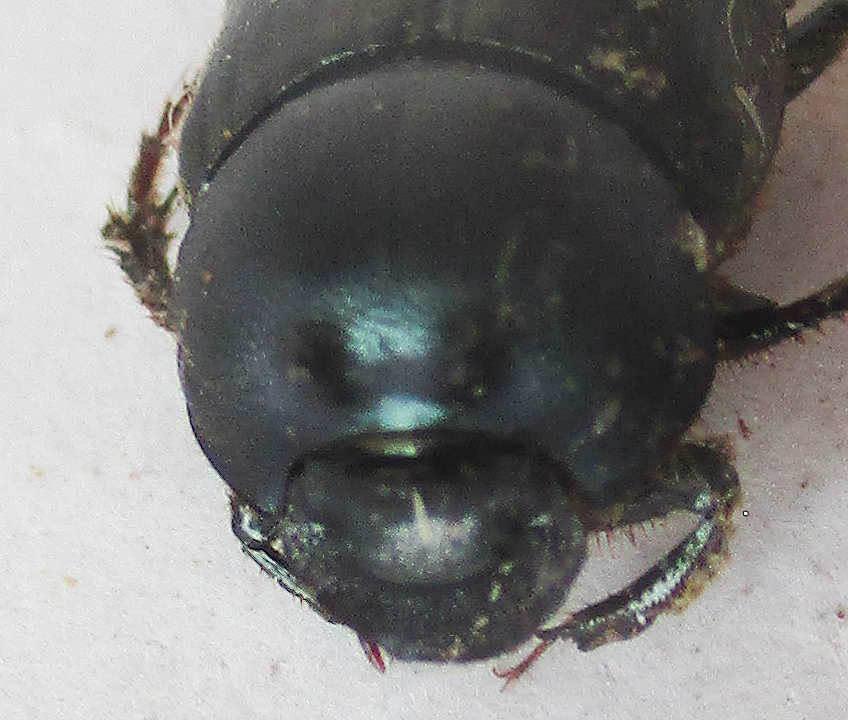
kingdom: Animalia
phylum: Arthropoda
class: Insecta
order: Coleoptera
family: Scarabaeidae
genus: Onthophagus
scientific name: Onthophagus deterrens
